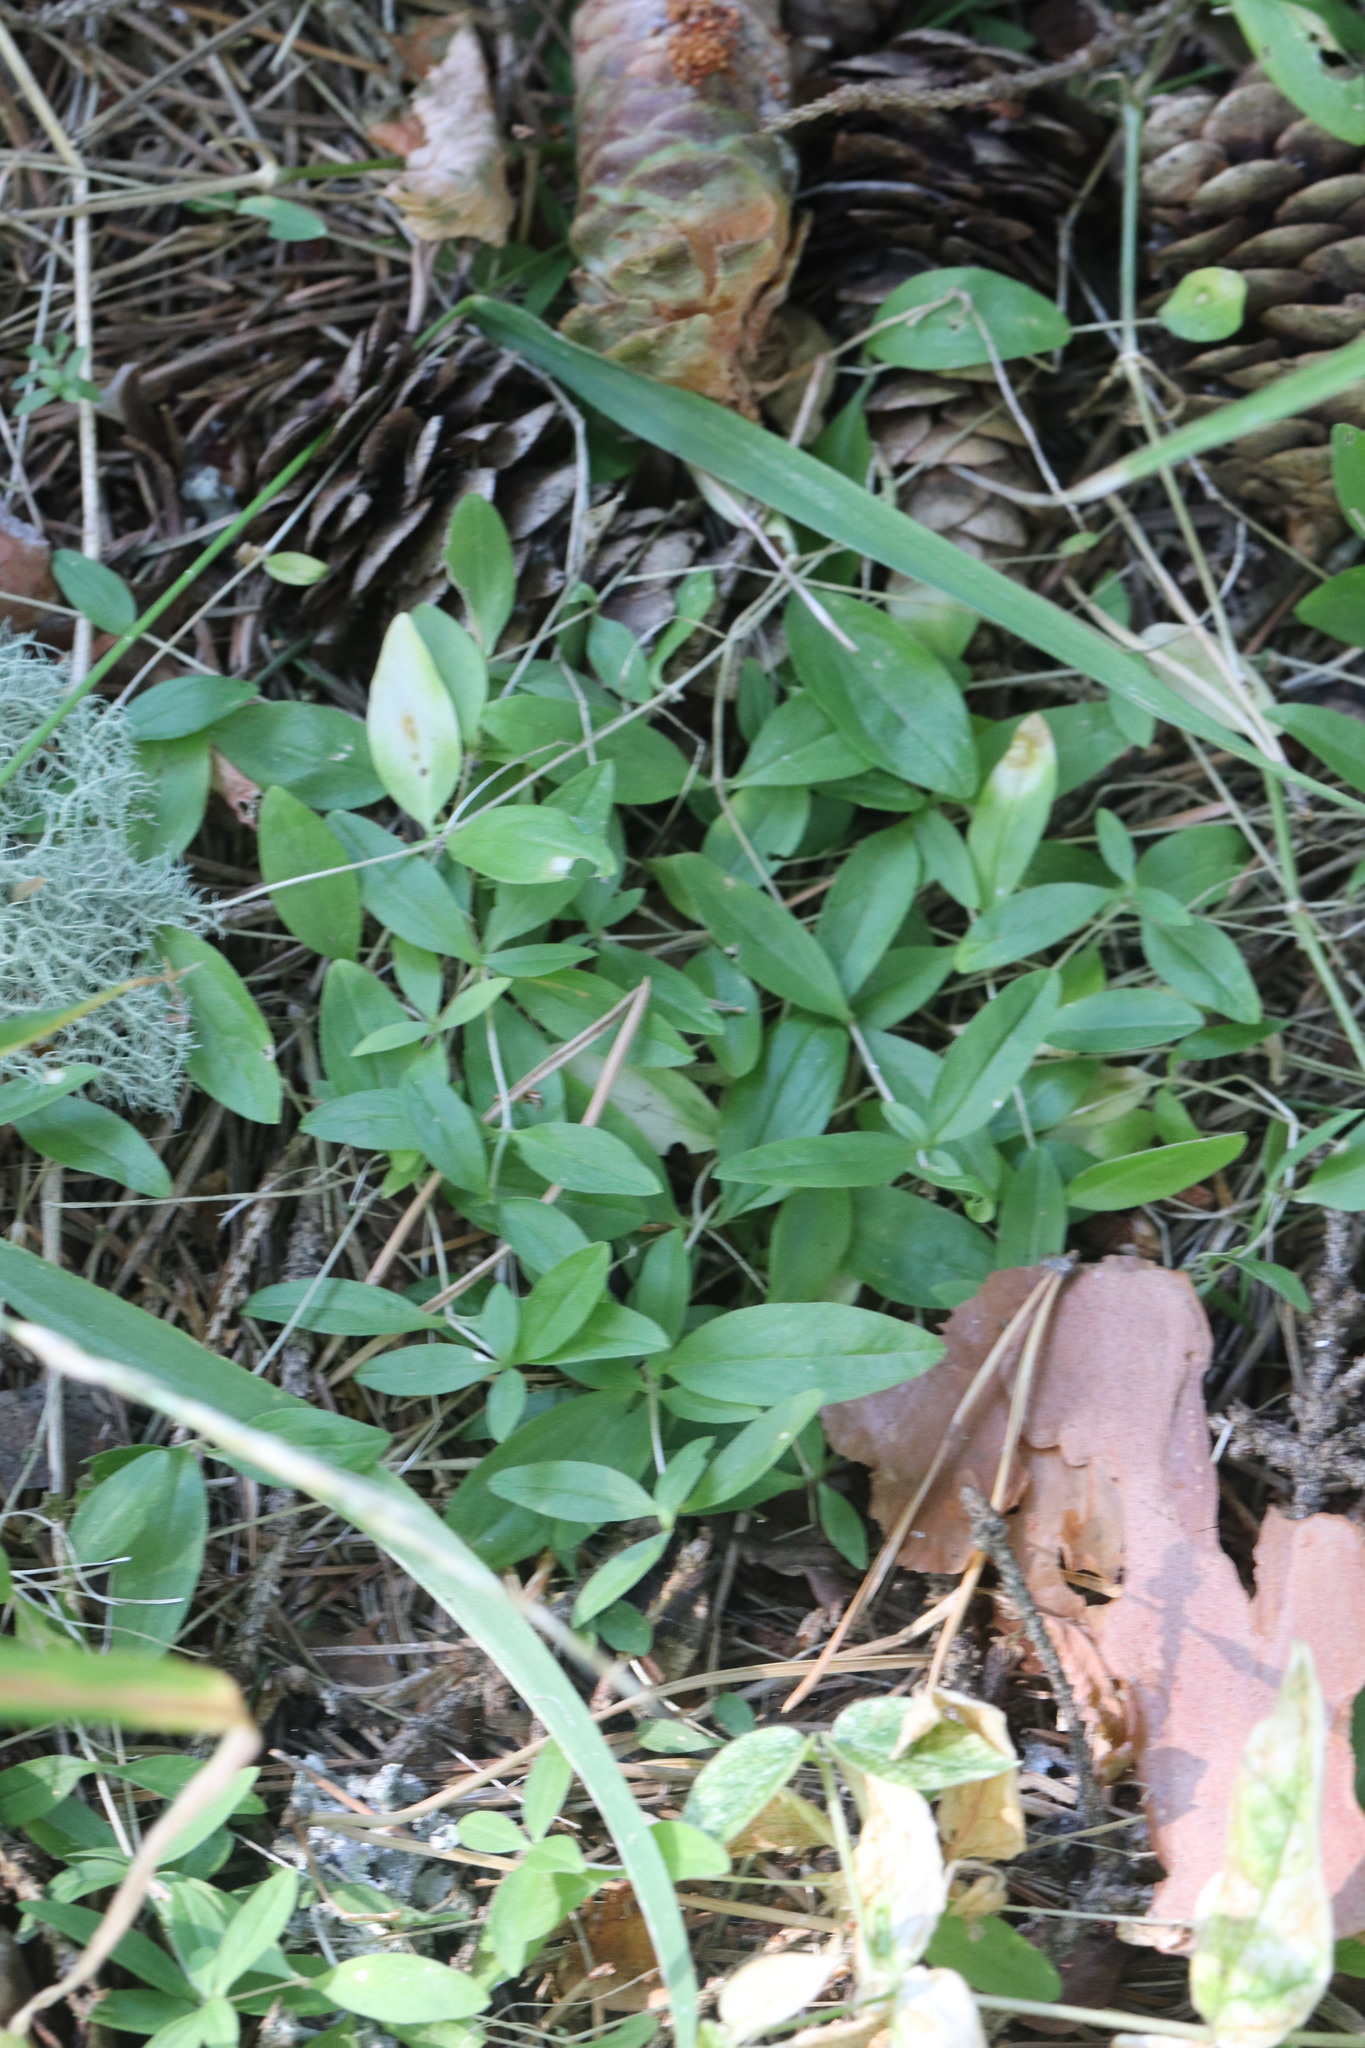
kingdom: Plantae
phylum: Tracheophyta
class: Magnoliopsida
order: Caryophyllales
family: Caryophyllaceae
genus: Moehringia
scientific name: Moehringia lateriflora
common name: Blunt-leaved sandwort
